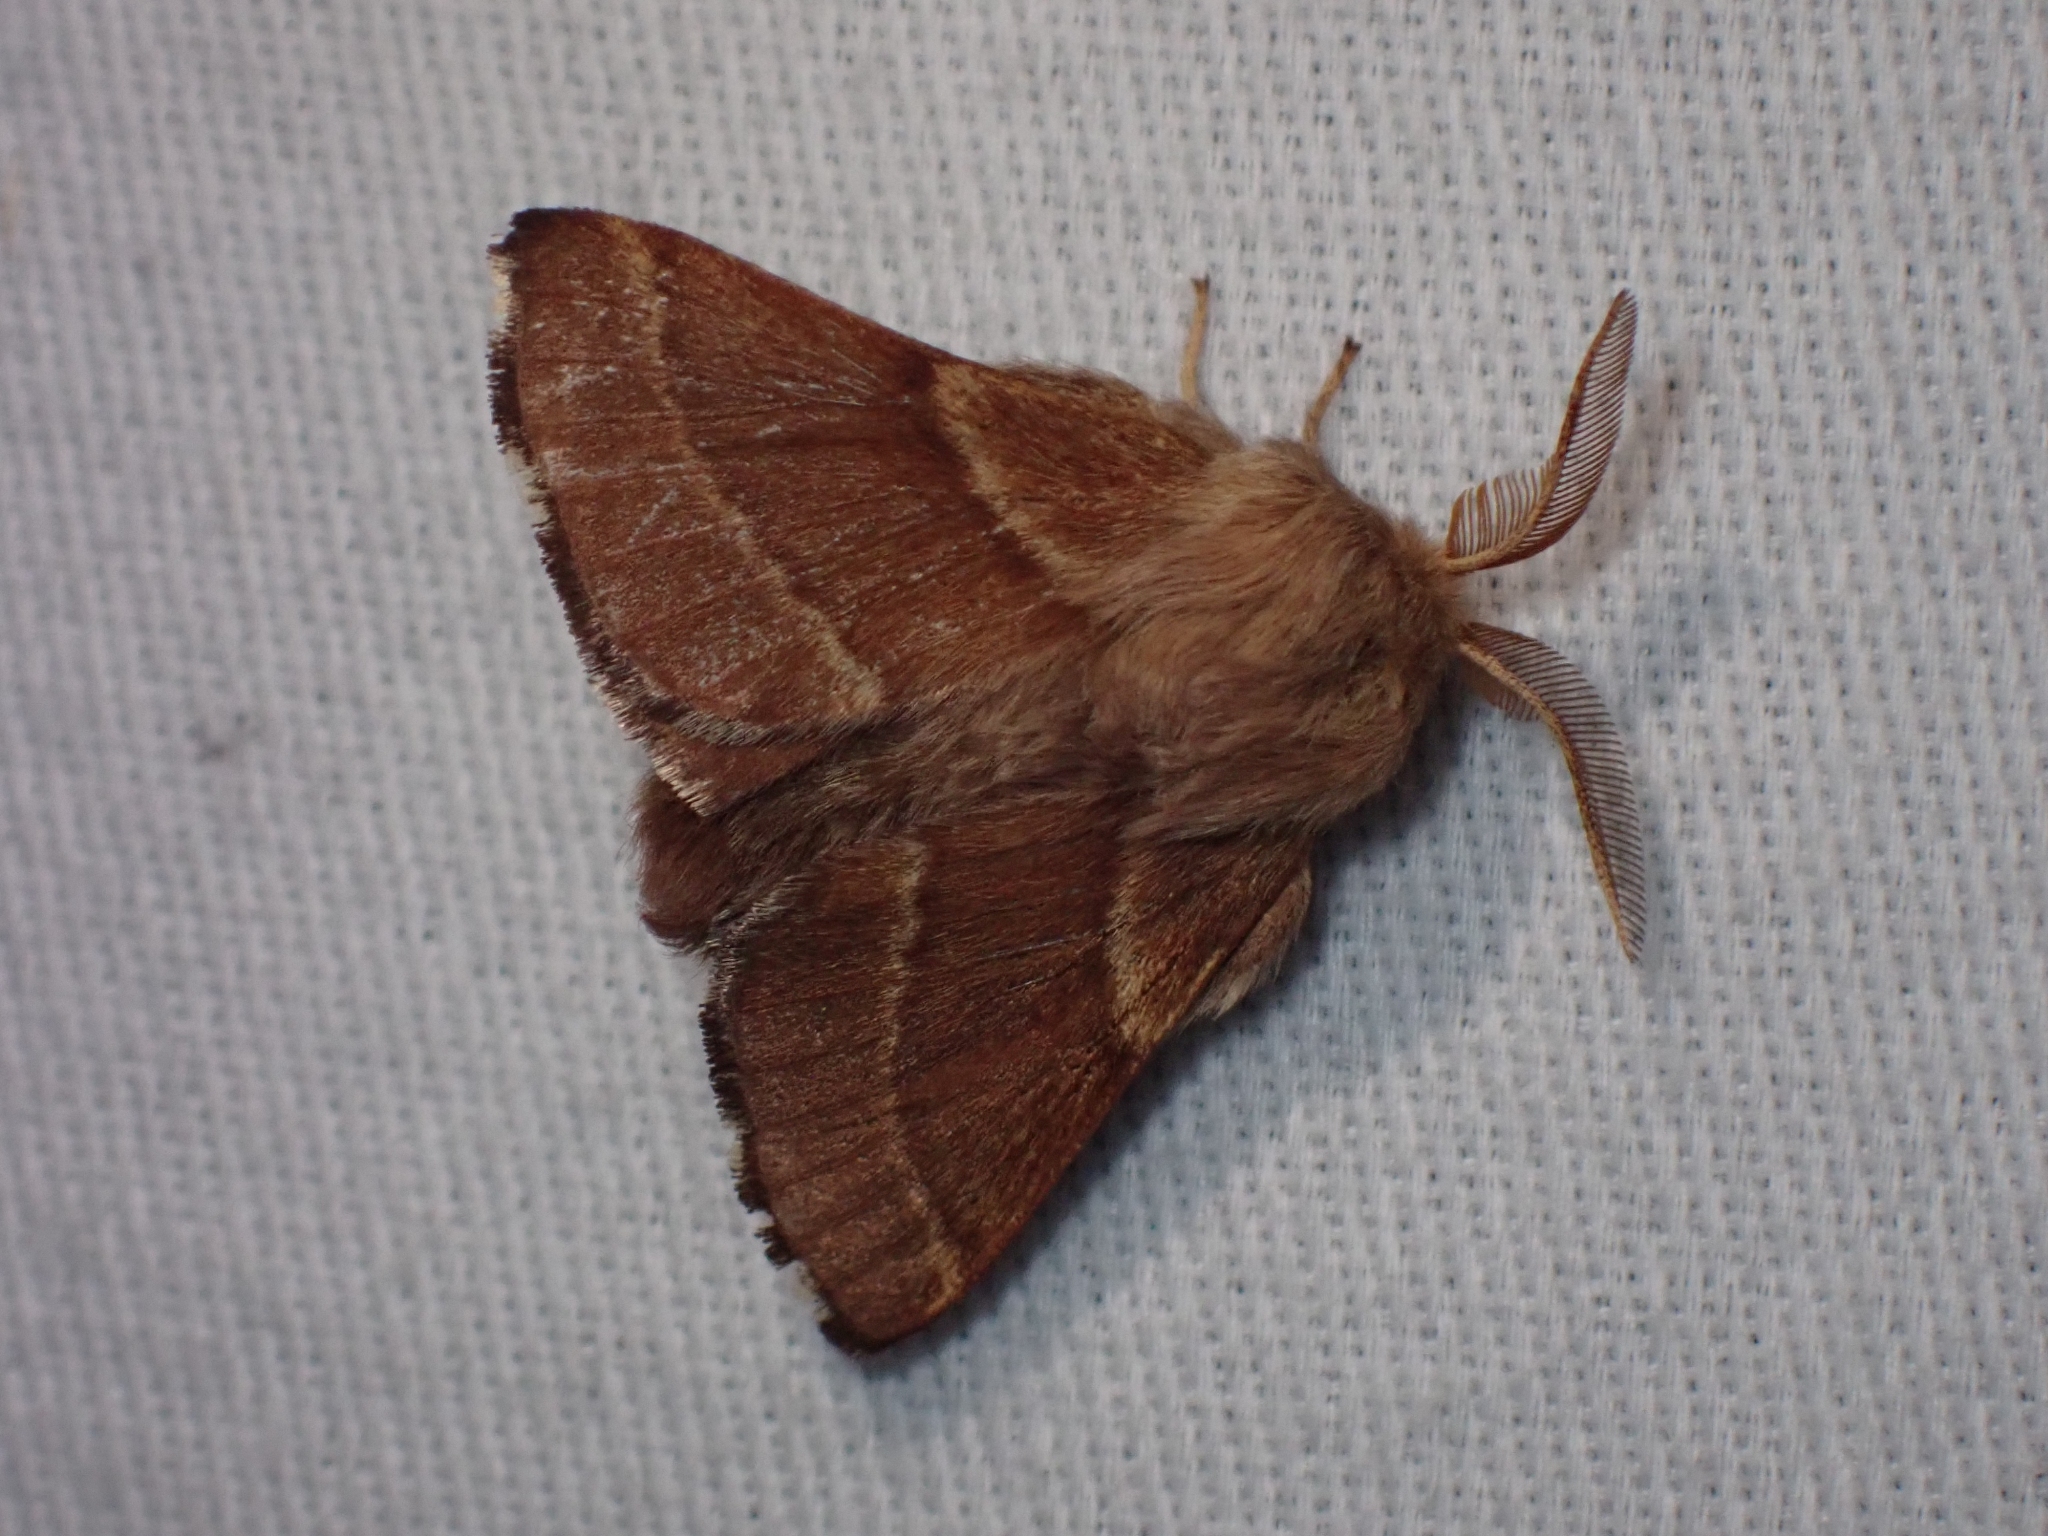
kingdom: Animalia
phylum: Arthropoda
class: Insecta
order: Lepidoptera
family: Lasiocampidae
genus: Malacosoma
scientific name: Malacosoma californica
